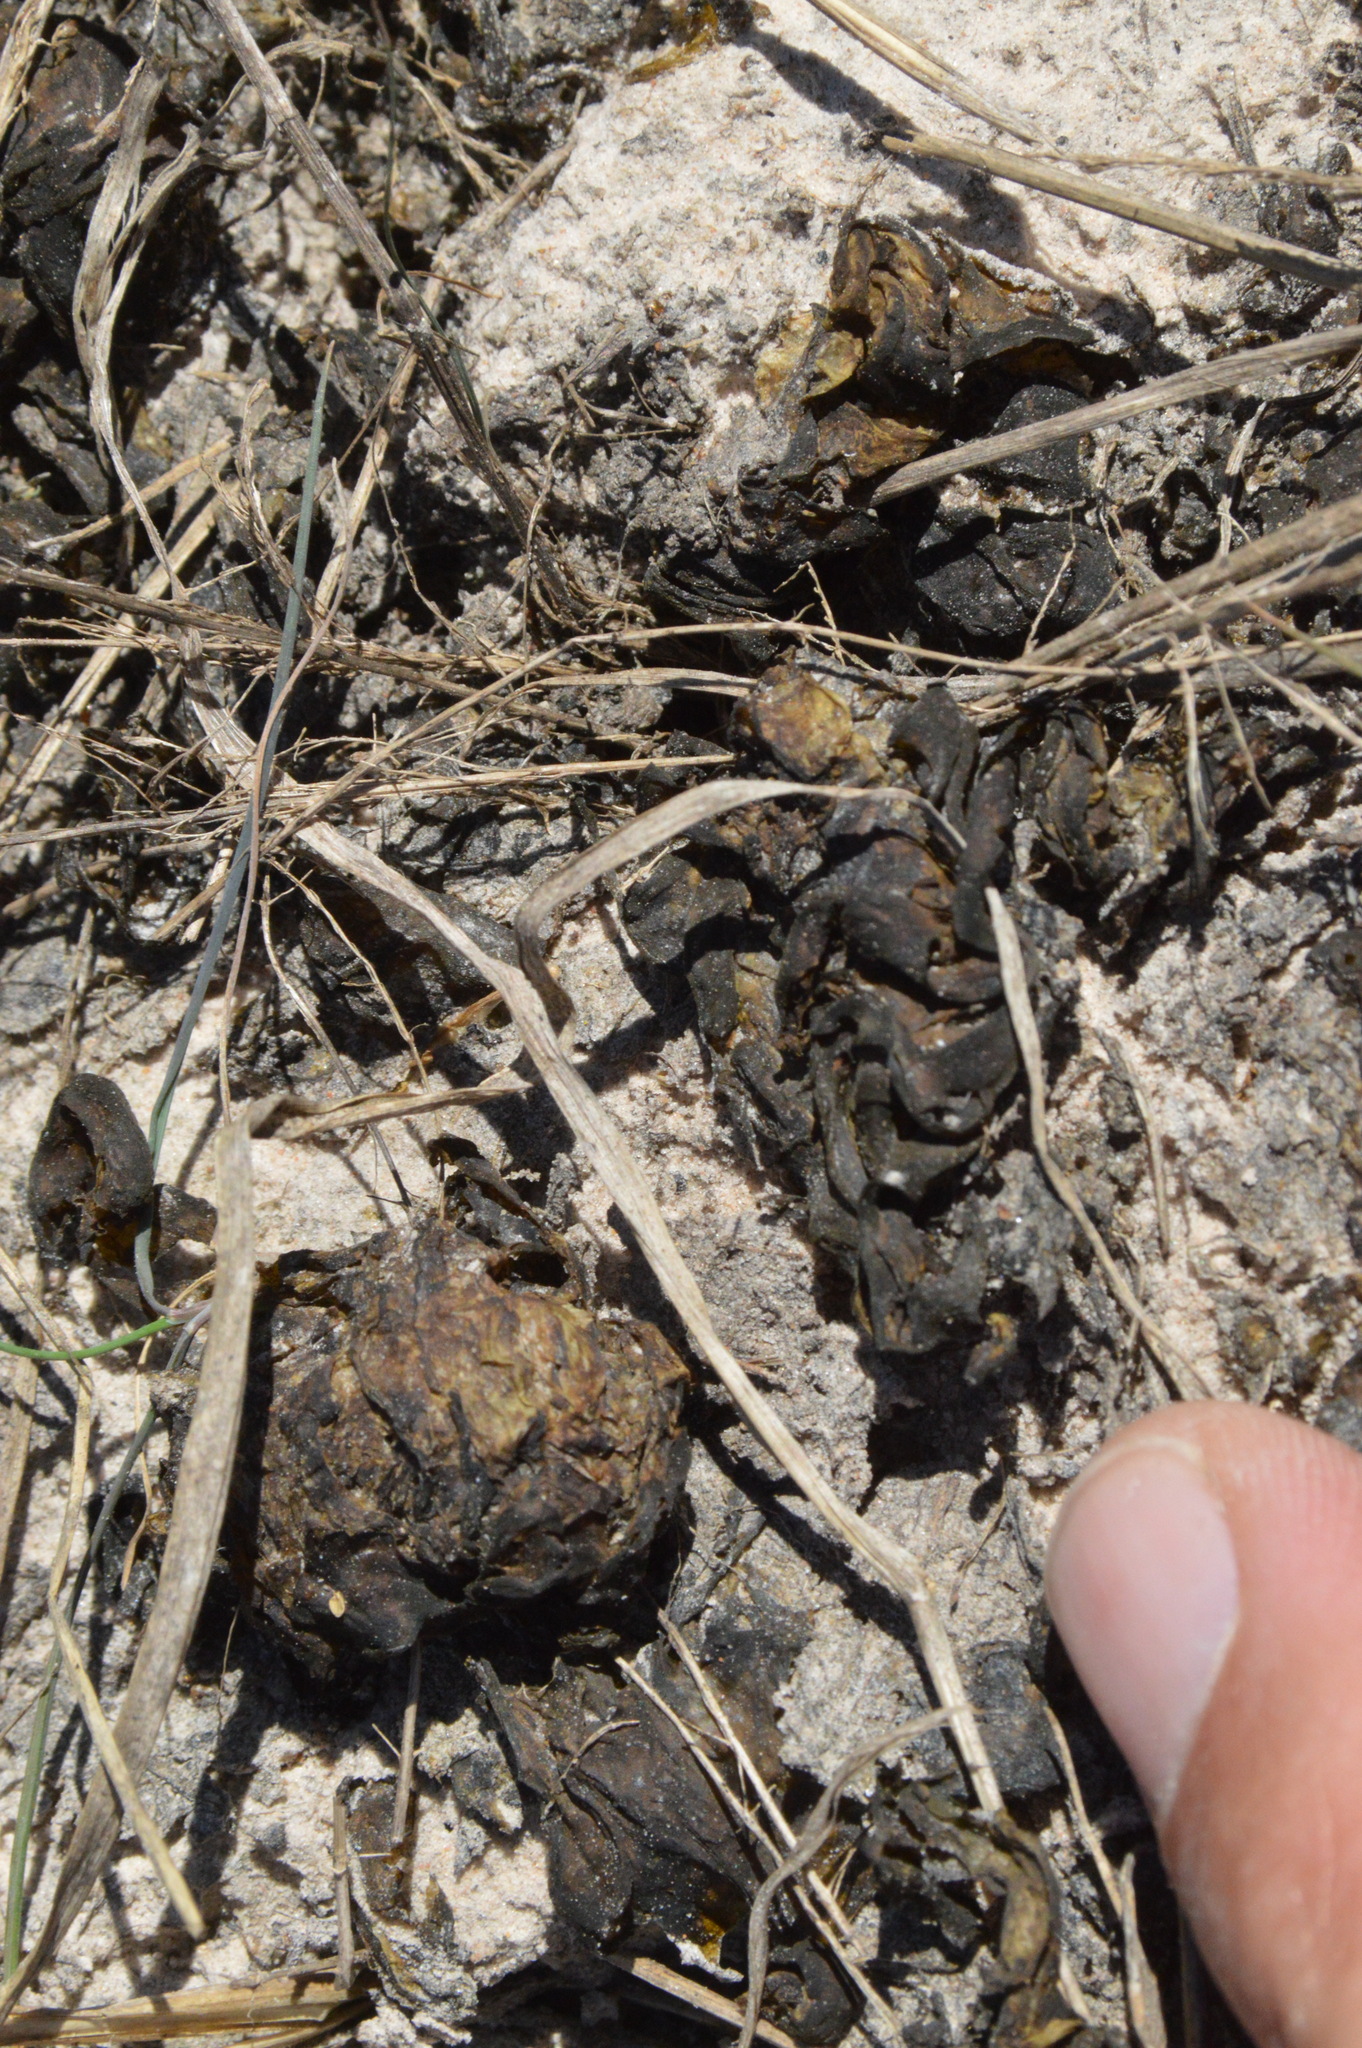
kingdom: Bacteria
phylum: Cyanobacteria
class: Cyanobacteriia
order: Cyanobacteriales
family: Nostocaceae
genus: Nostoc
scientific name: Nostoc commune
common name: Star jelly
